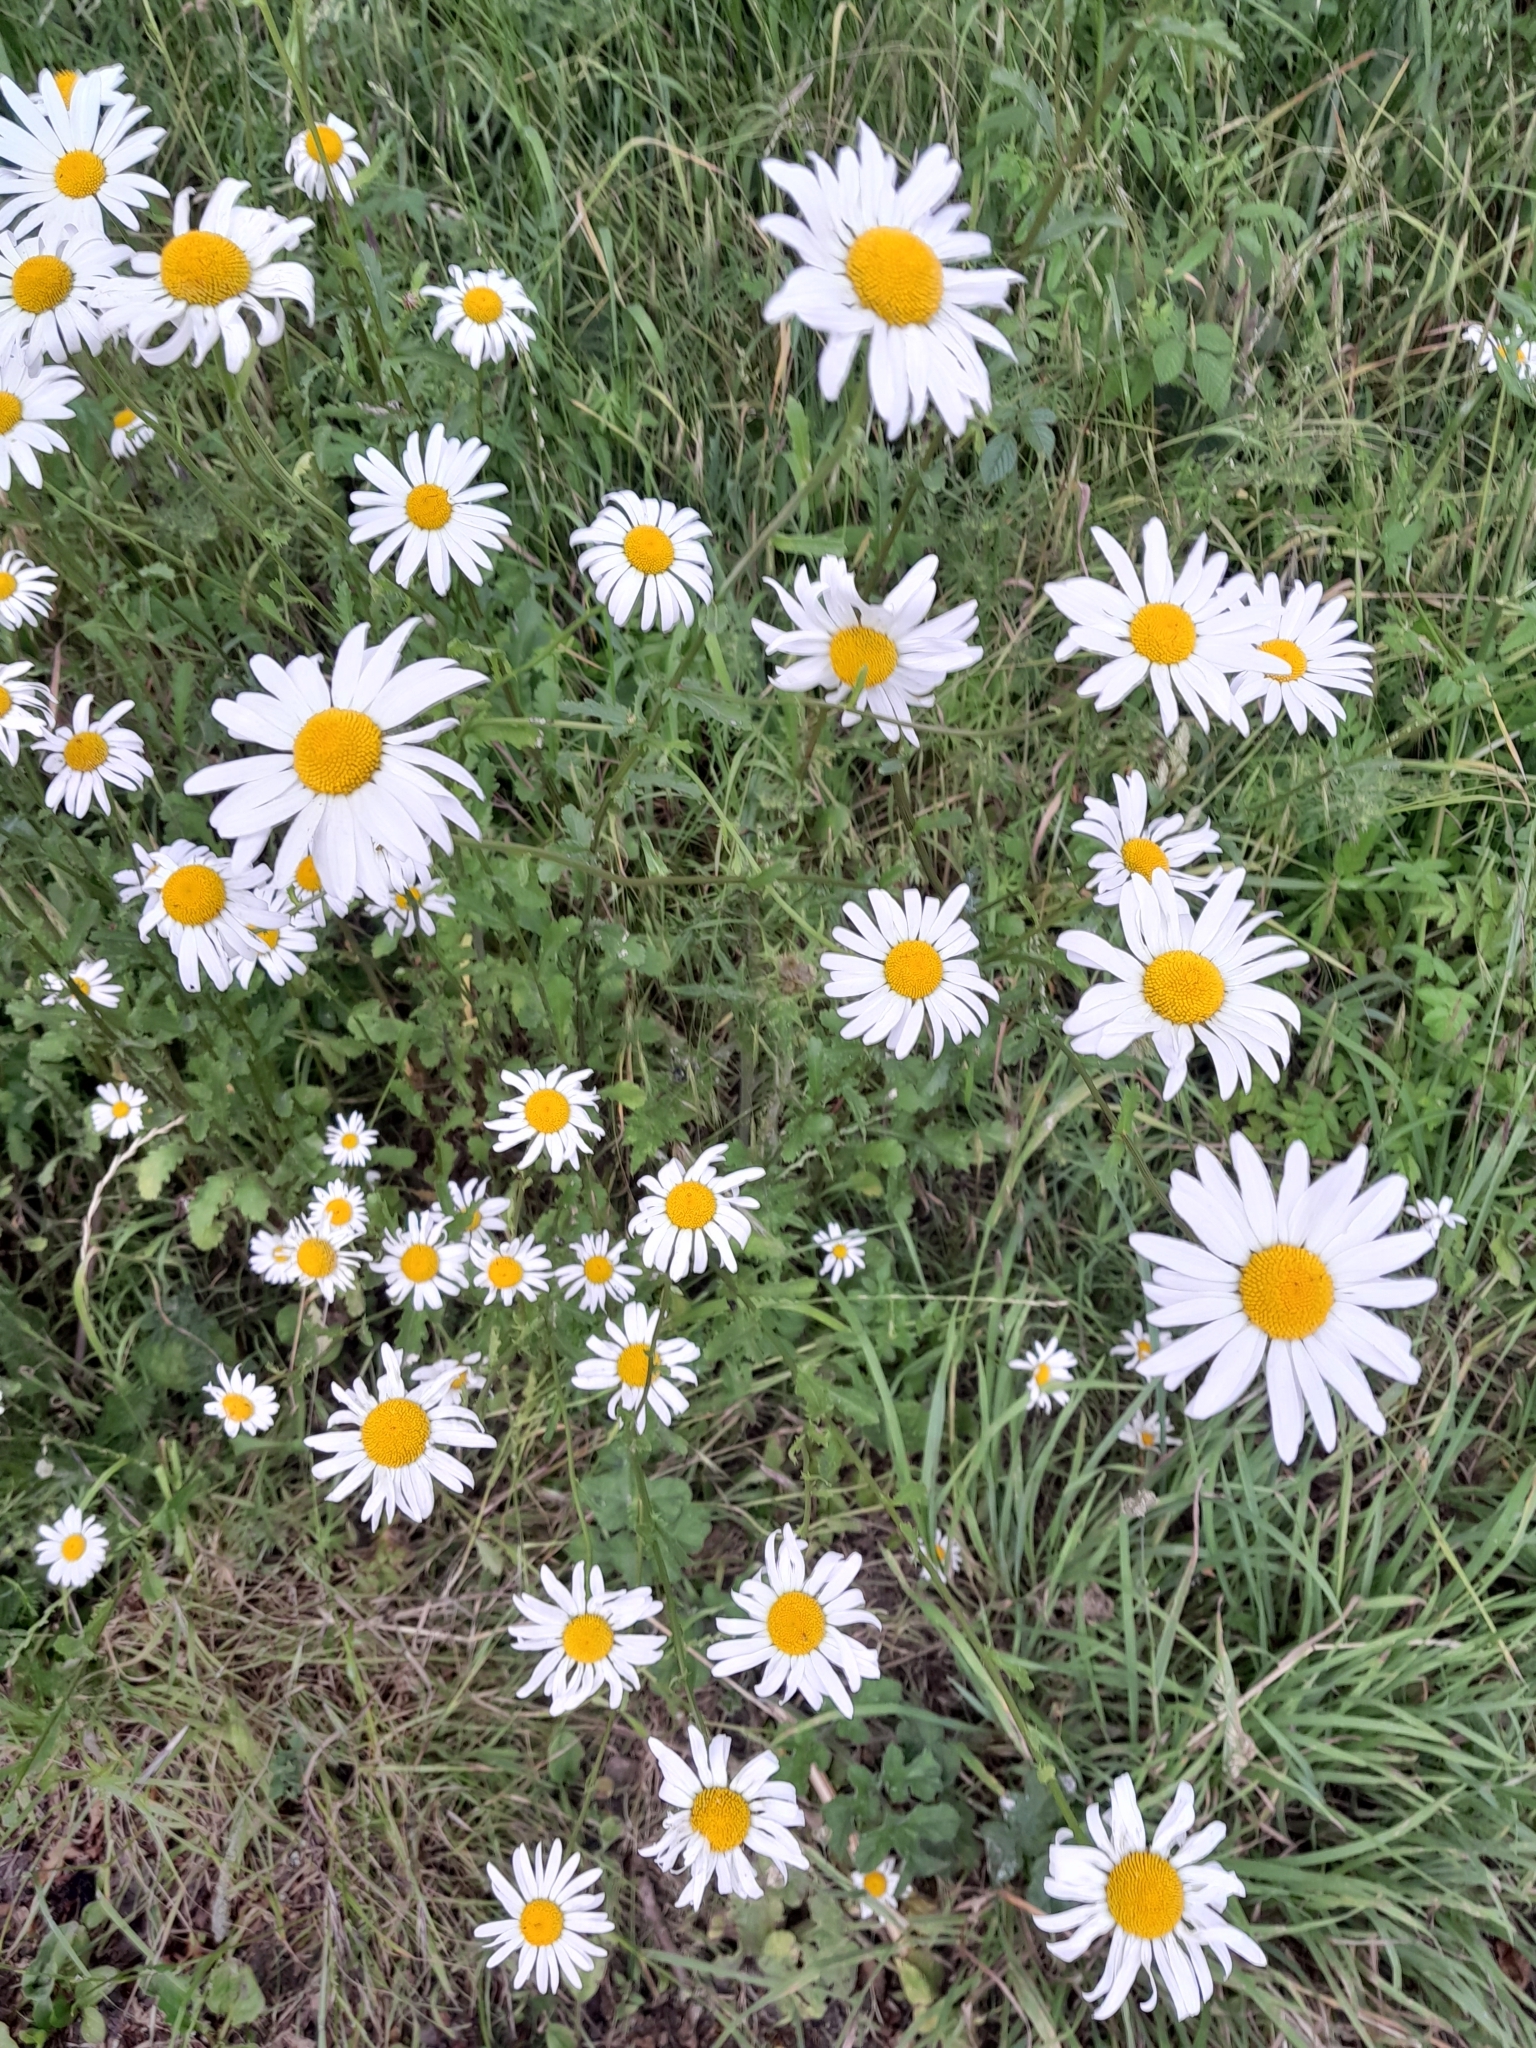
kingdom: Plantae
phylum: Tracheophyta
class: Magnoliopsida
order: Asterales
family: Asteraceae
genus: Leucanthemum
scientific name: Leucanthemum vulgare
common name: Oxeye daisy
